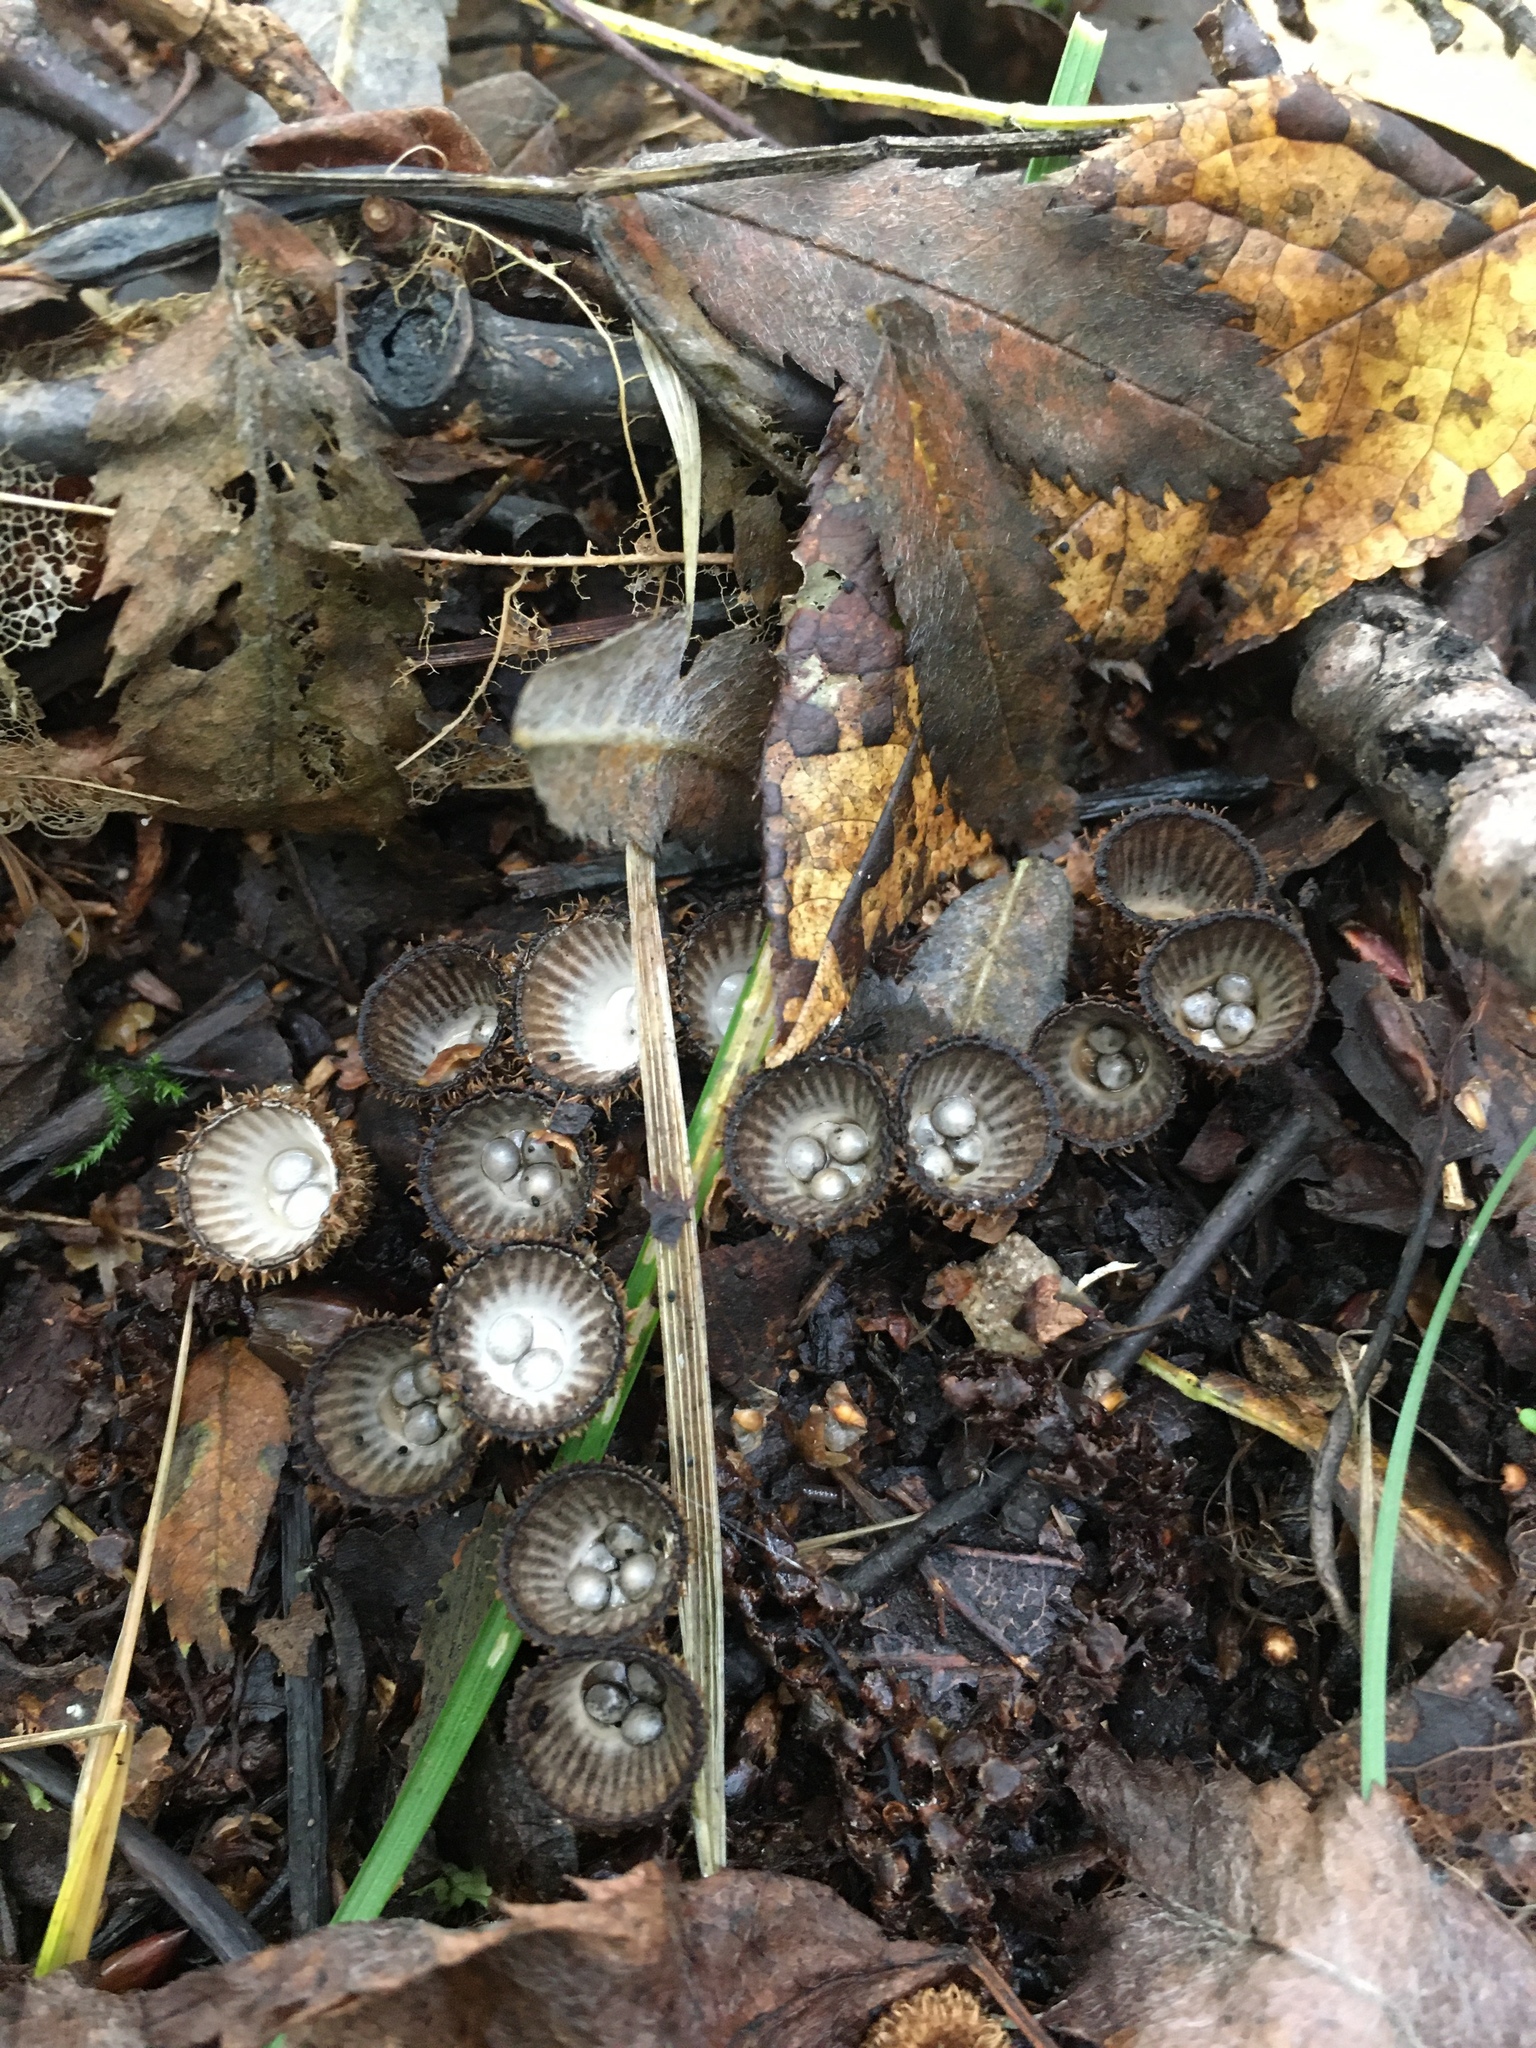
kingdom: Fungi
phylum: Basidiomycota
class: Agaricomycetes
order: Agaricales
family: Agaricaceae
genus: Cyathus
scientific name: Cyathus striatus
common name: Fluted bird's nest
